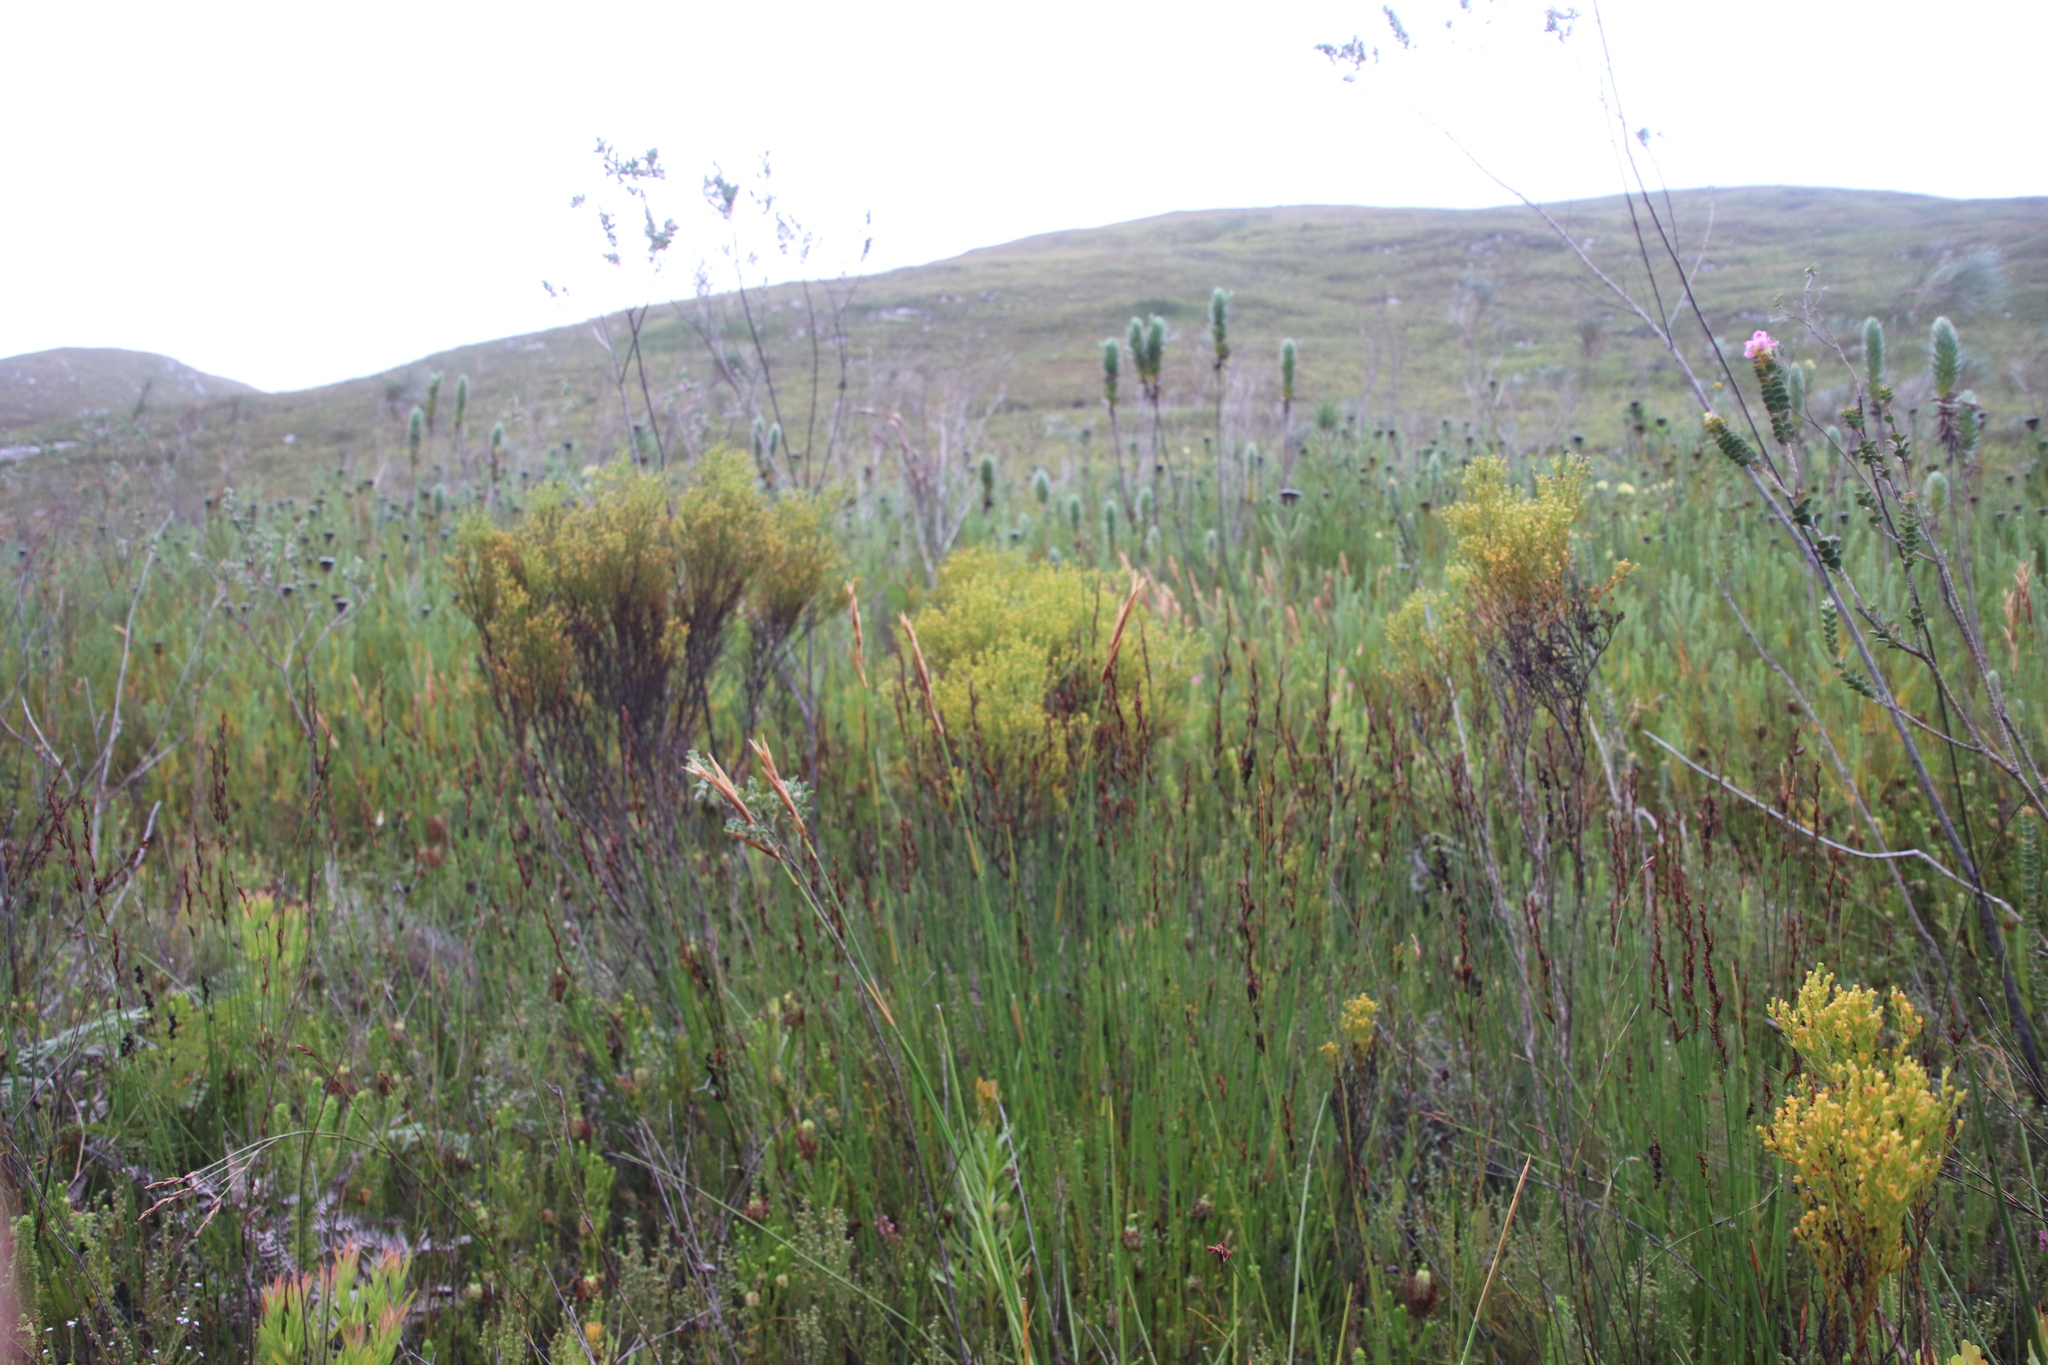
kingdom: Plantae
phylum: Tracheophyta
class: Magnoliopsida
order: Santalales
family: Thesiaceae
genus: Thesium
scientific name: Thesium quinqueflorum
